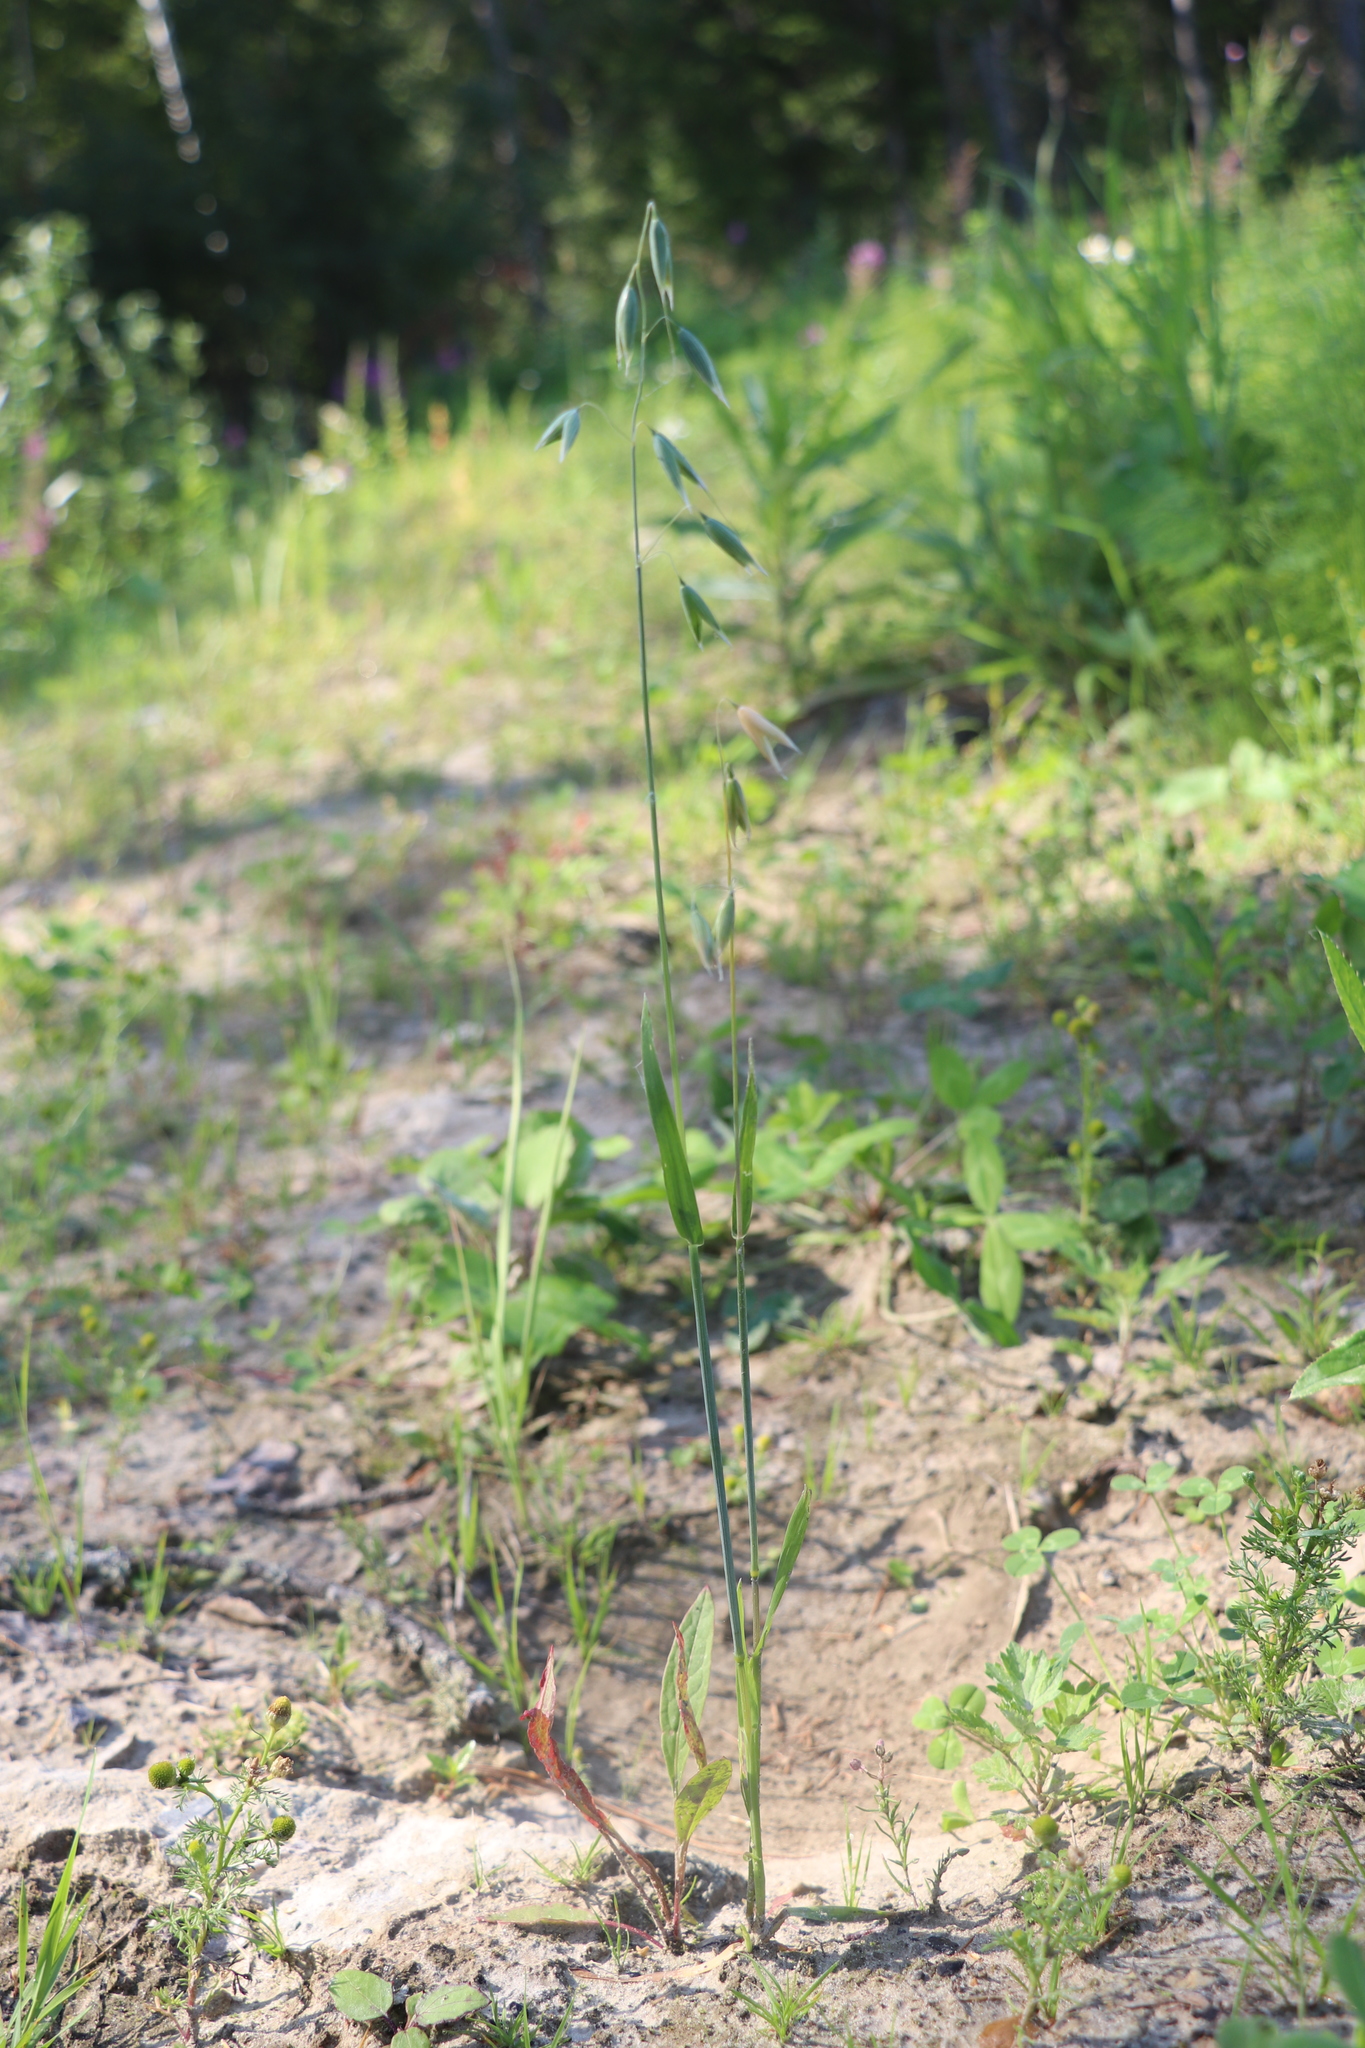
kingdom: Plantae
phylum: Tracheophyta
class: Liliopsida
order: Poales
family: Poaceae
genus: Avena
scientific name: Avena sativa
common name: Oat
